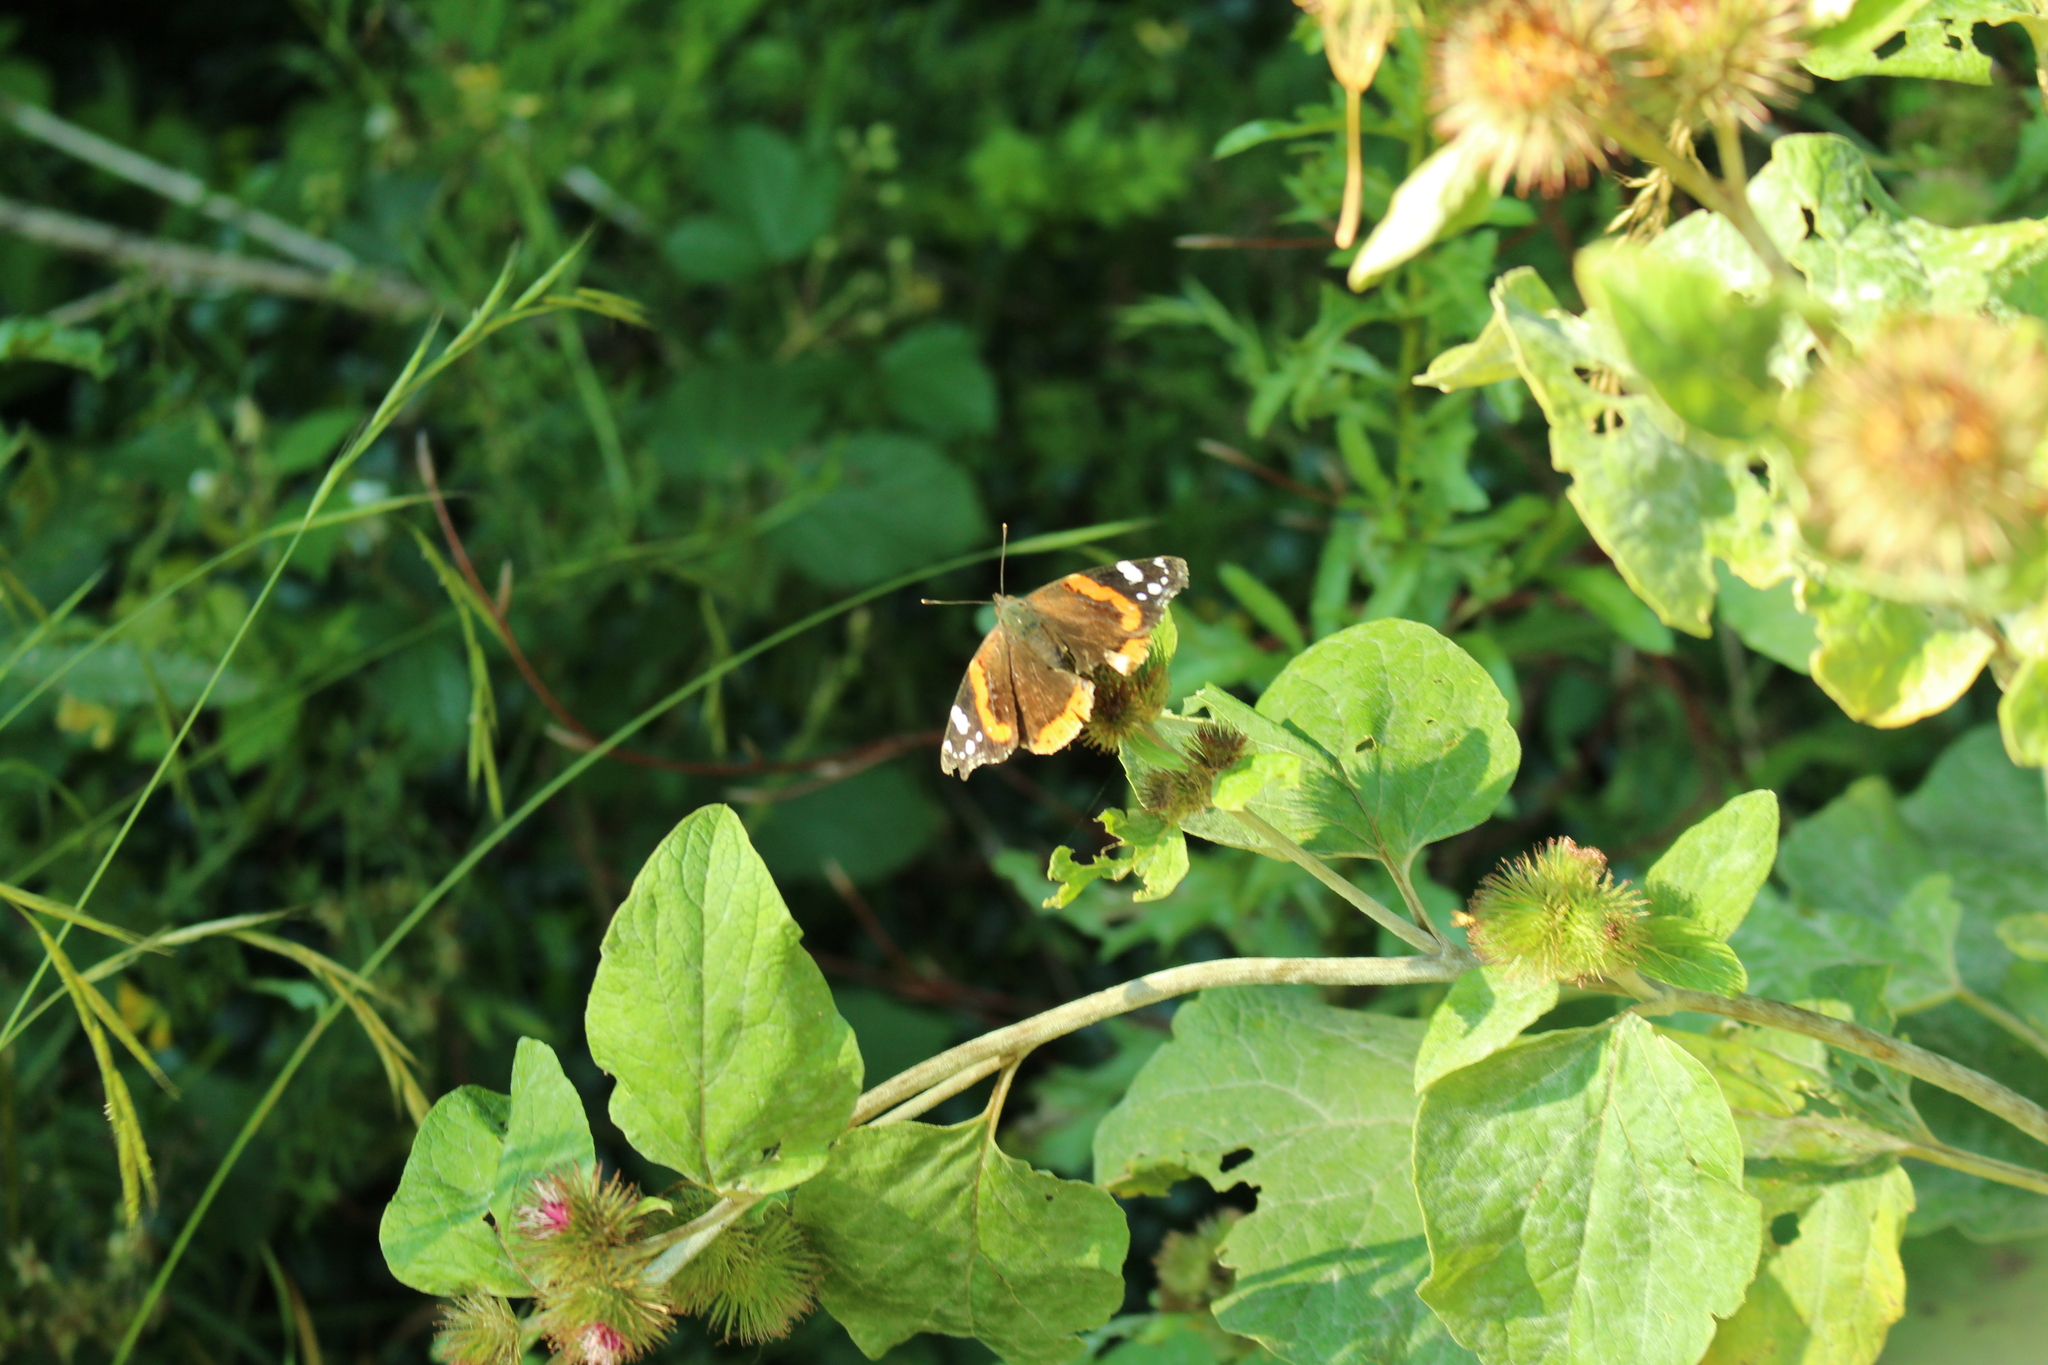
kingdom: Animalia
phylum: Arthropoda
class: Insecta
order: Lepidoptera
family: Nymphalidae
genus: Vanessa
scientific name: Vanessa atalanta
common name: Red admiral
